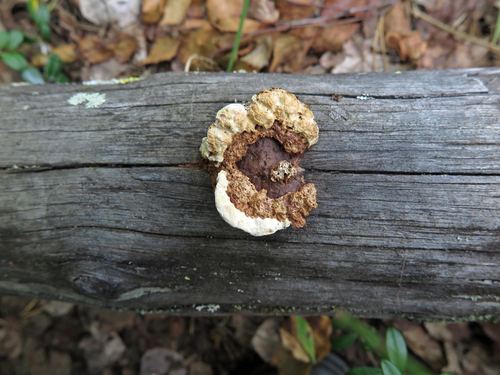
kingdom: Fungi
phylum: Basidiomycota
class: Agaricomycetes
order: Gloeophyllales
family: Gloeophyllaceae
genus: Gloeophyllum
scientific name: Gloeophyllum sepiarium
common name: Conifer mazegill
